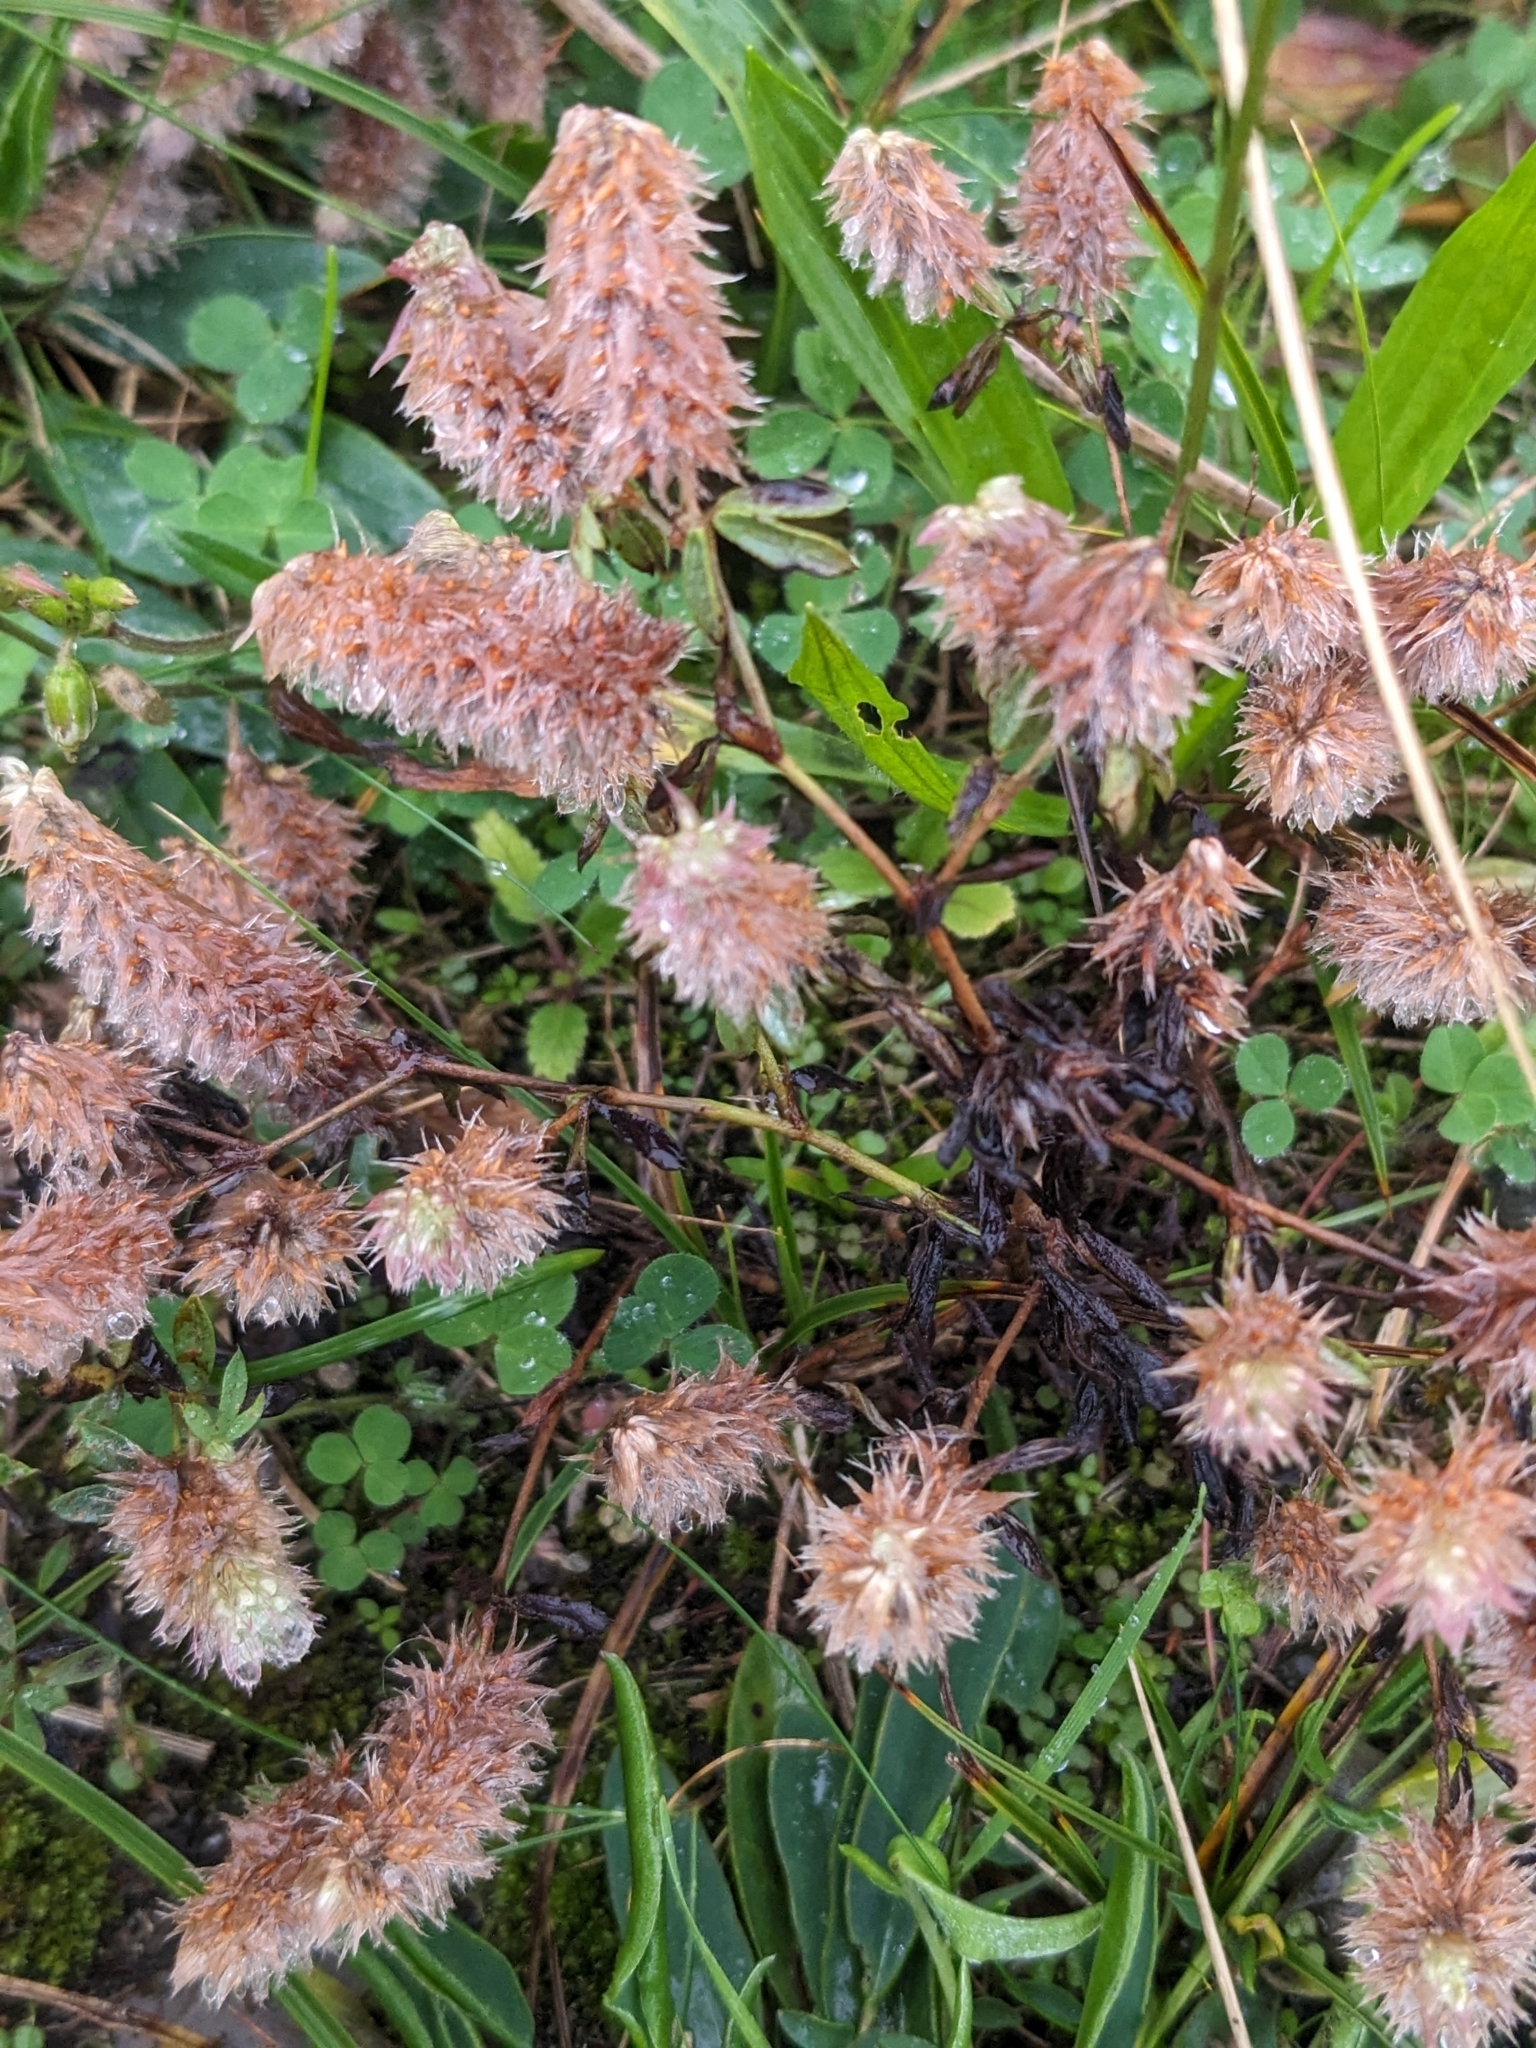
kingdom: Plantae
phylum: Tracheophyta
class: Magnoliopsida
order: Fabales
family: Fabaceae
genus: Trifolium
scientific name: Trifolium arvense
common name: Hare's-foot clover
